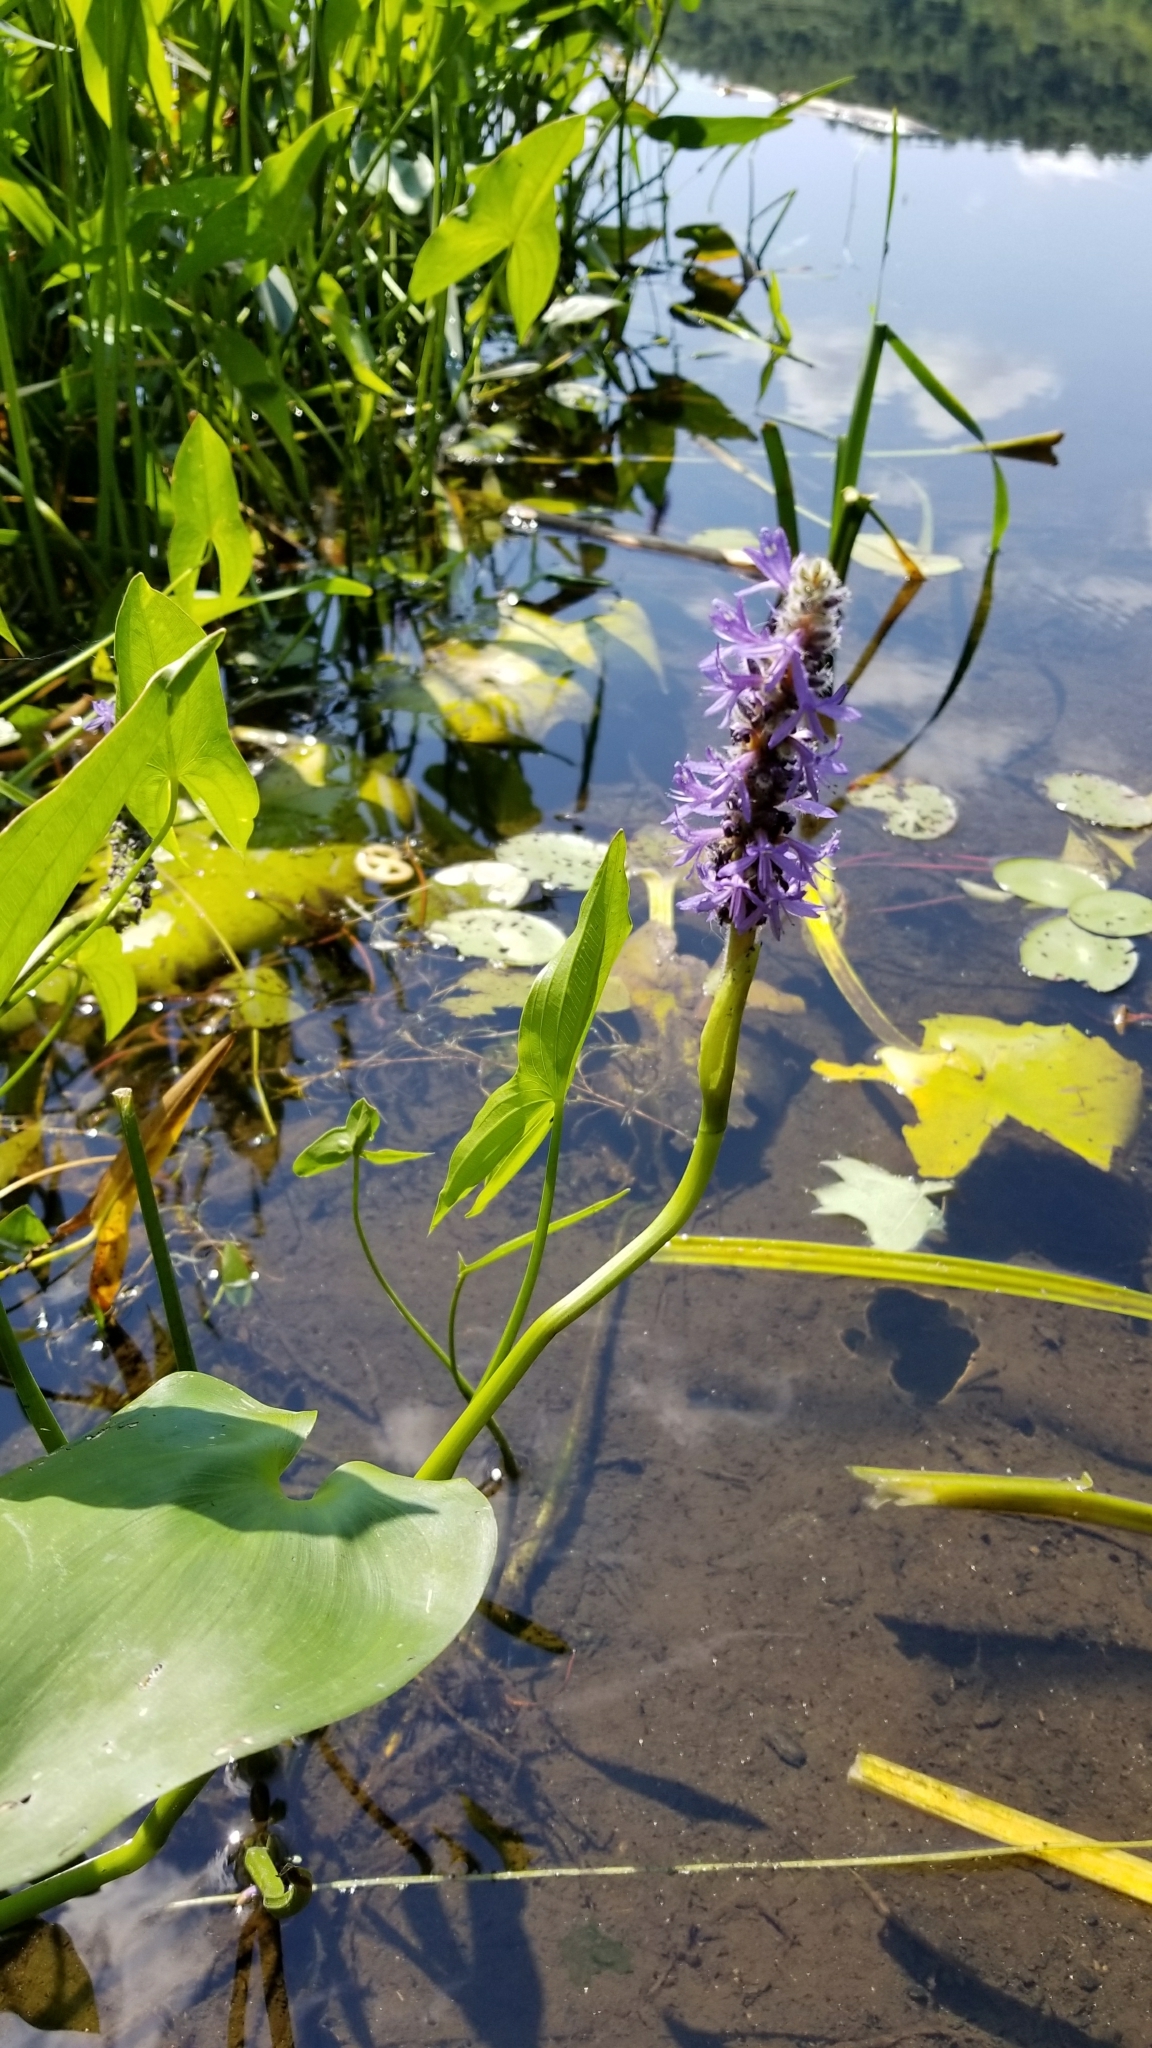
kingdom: Plantae
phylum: Tracheophyta
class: Liliopsida
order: Commelinales
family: Pontederiaceae
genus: Pontederia
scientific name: Pontederia cordata
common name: Pickerelweed
